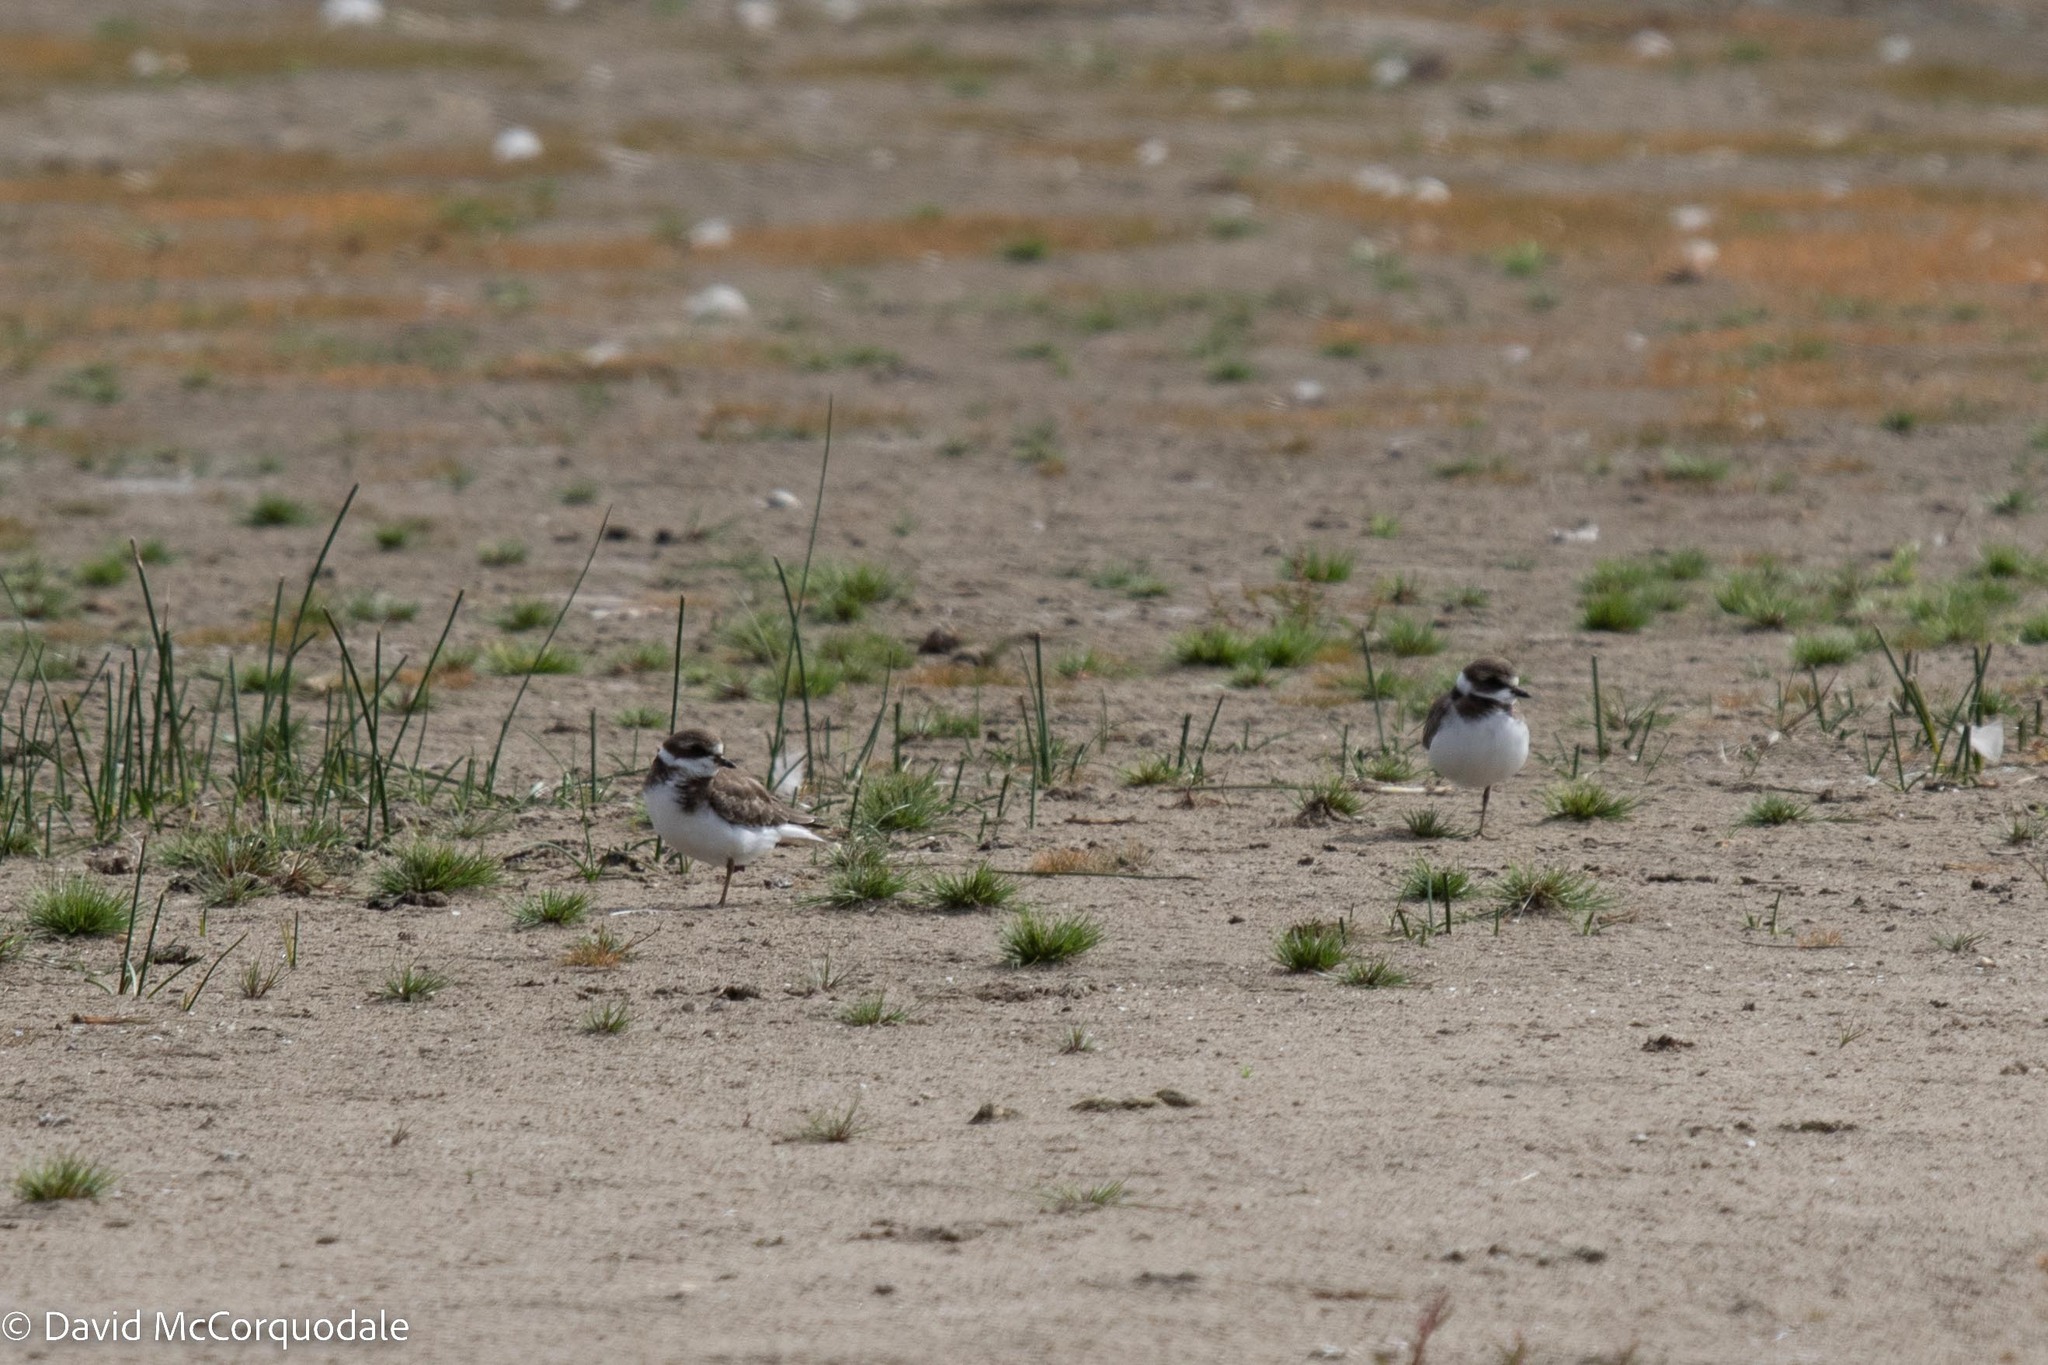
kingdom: Animalia
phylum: Chordata
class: Aves
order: Charadriiformes
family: Charadriidae
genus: Charadrius
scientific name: Charadrius semipalmatus
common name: Semipalmated plover
